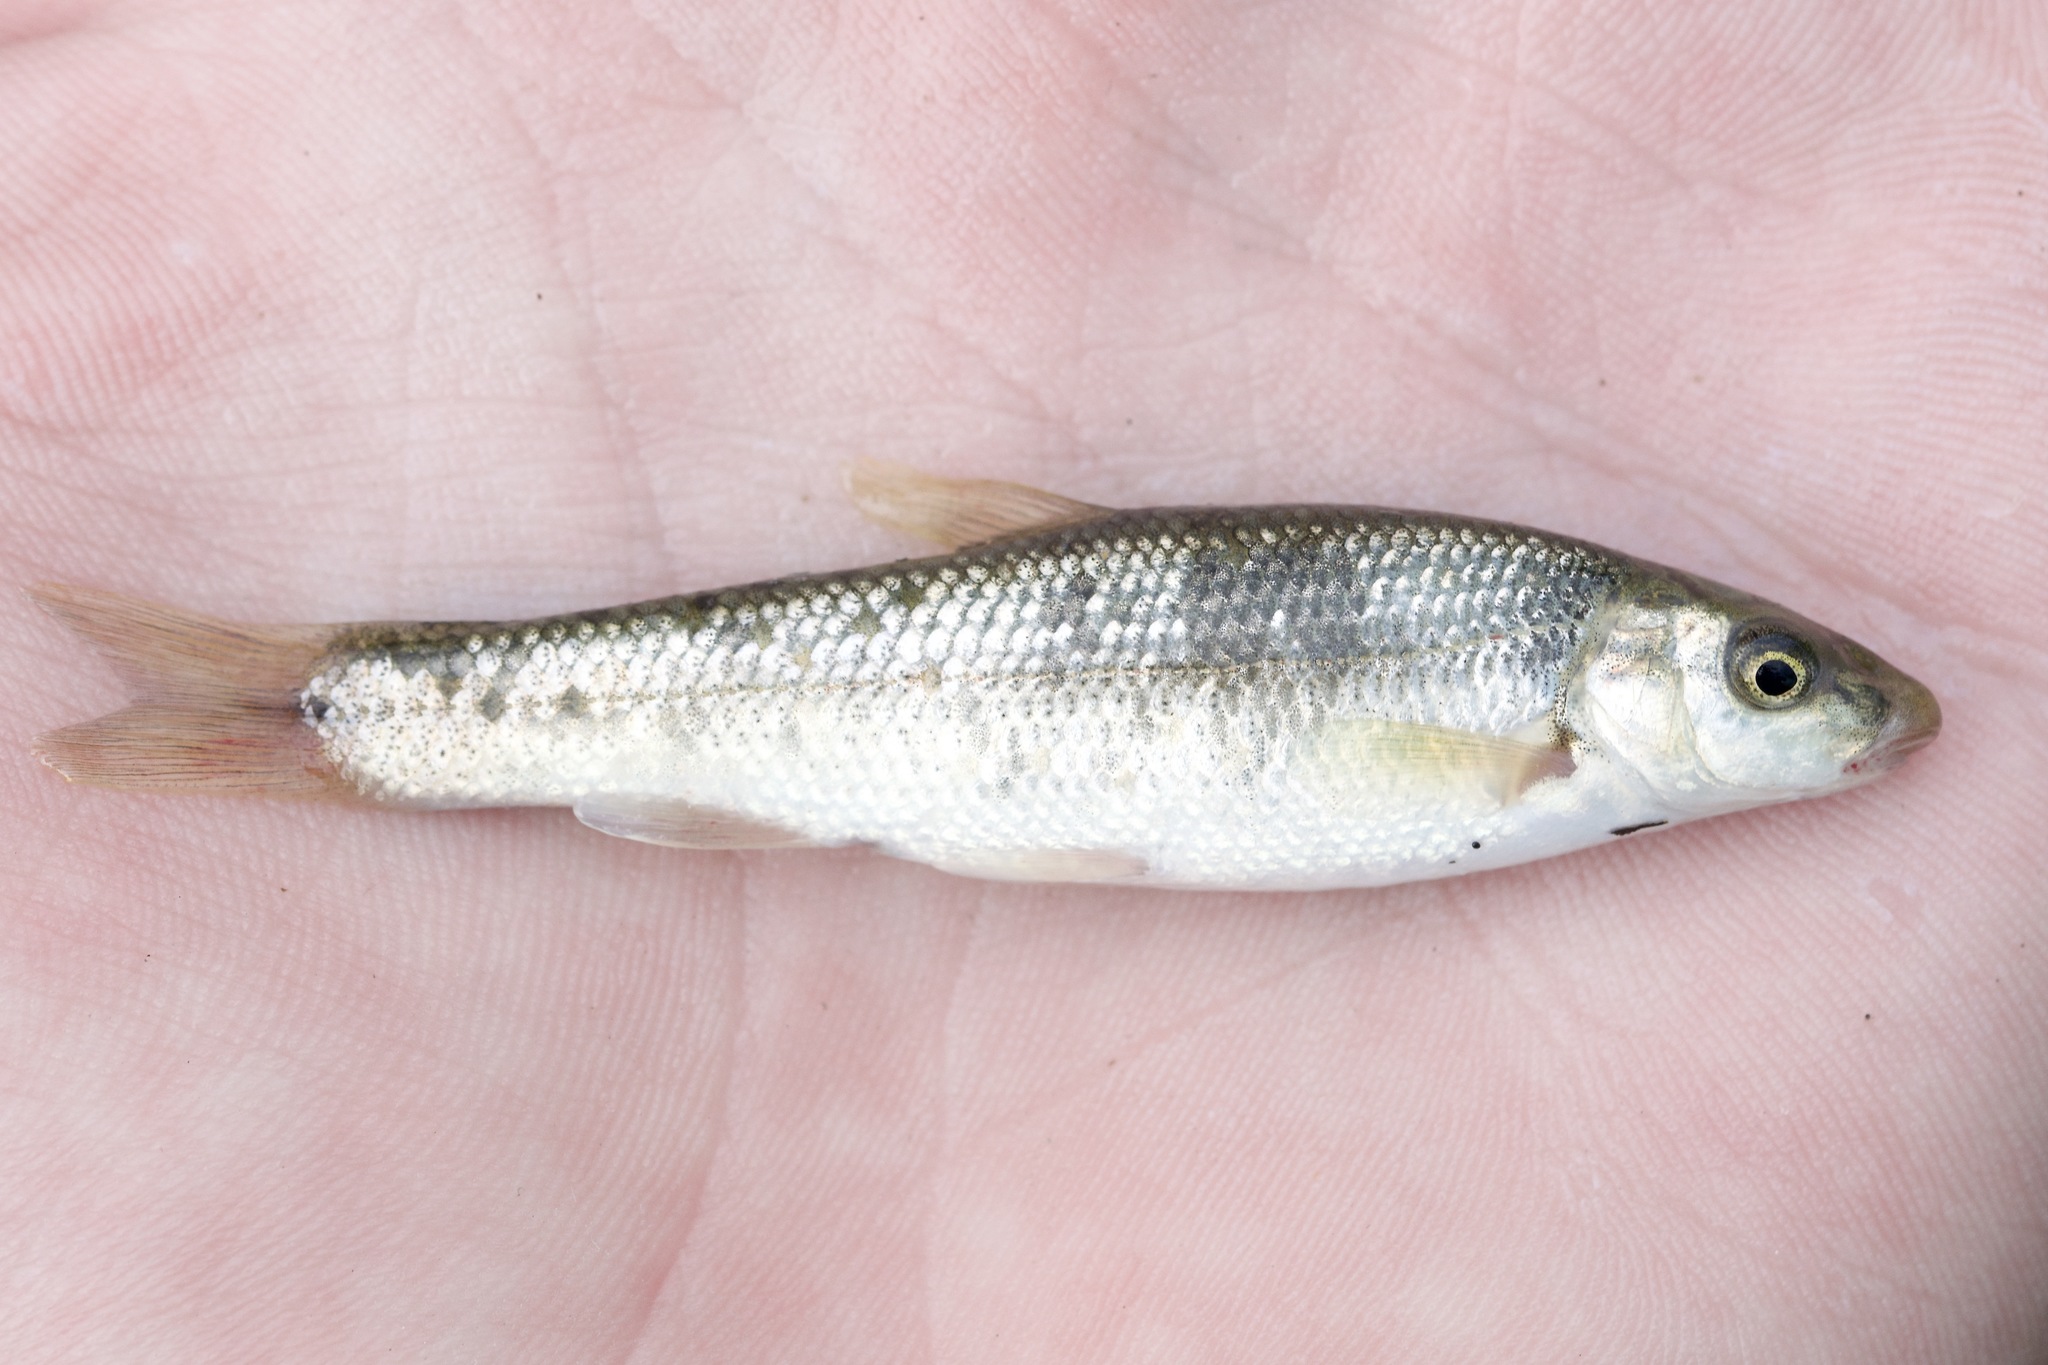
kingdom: Animalia
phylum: Chordata
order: Cypriniformes
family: Cyprinidae
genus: Campostoma
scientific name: Campostoma anomalum
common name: Central stoneroller
